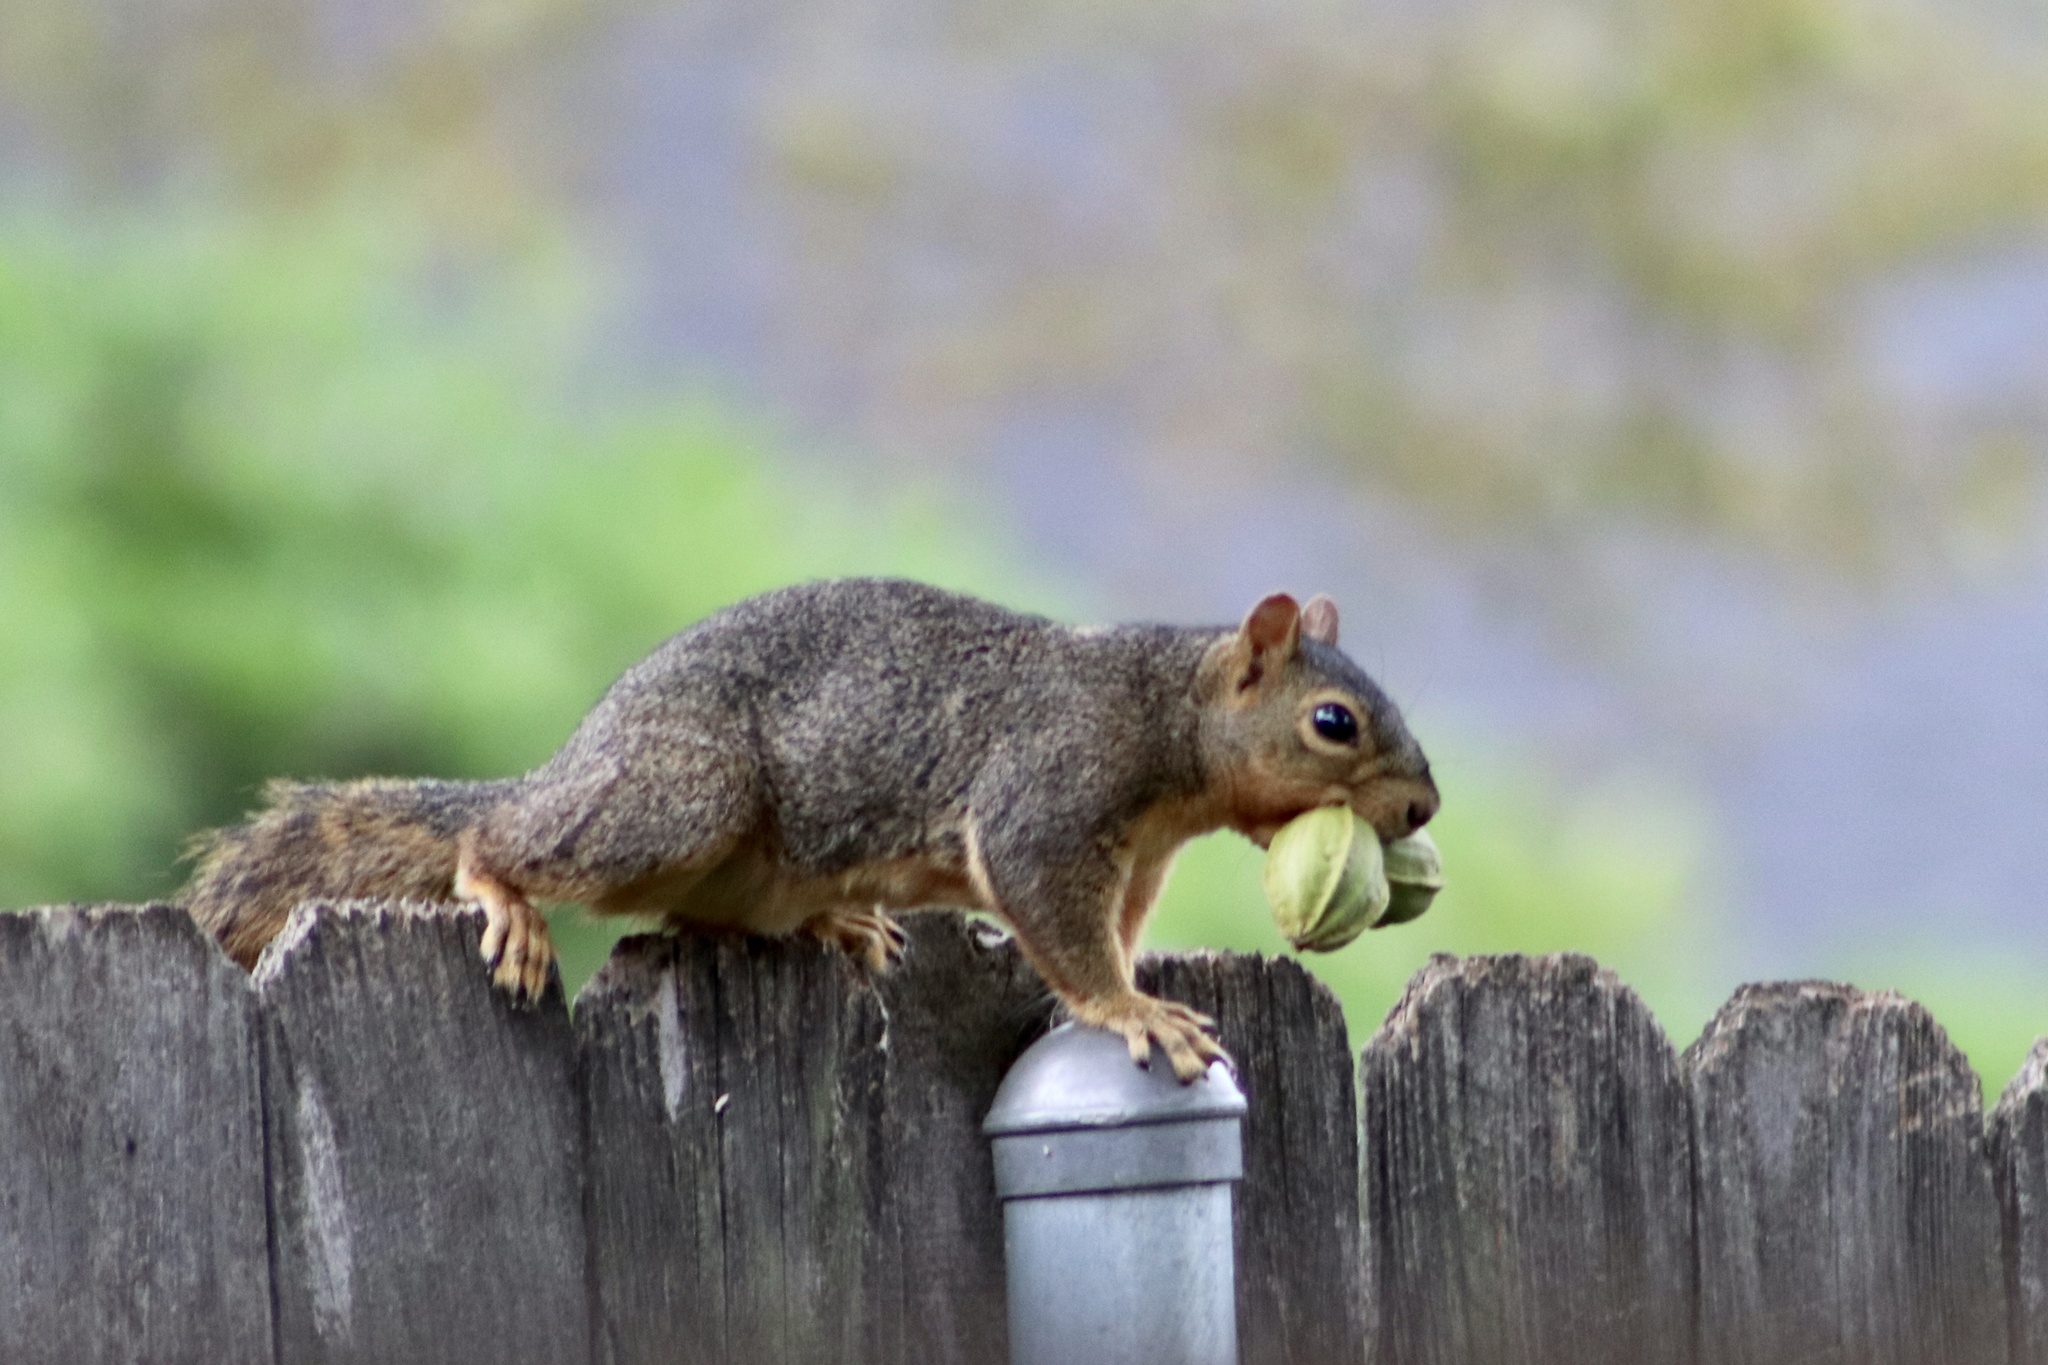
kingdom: Animalia
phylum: Chordata
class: Mammalia
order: Rodentia
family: Sciuridae
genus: Sciurus
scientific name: Sciurus niger
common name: Fox squirrel
